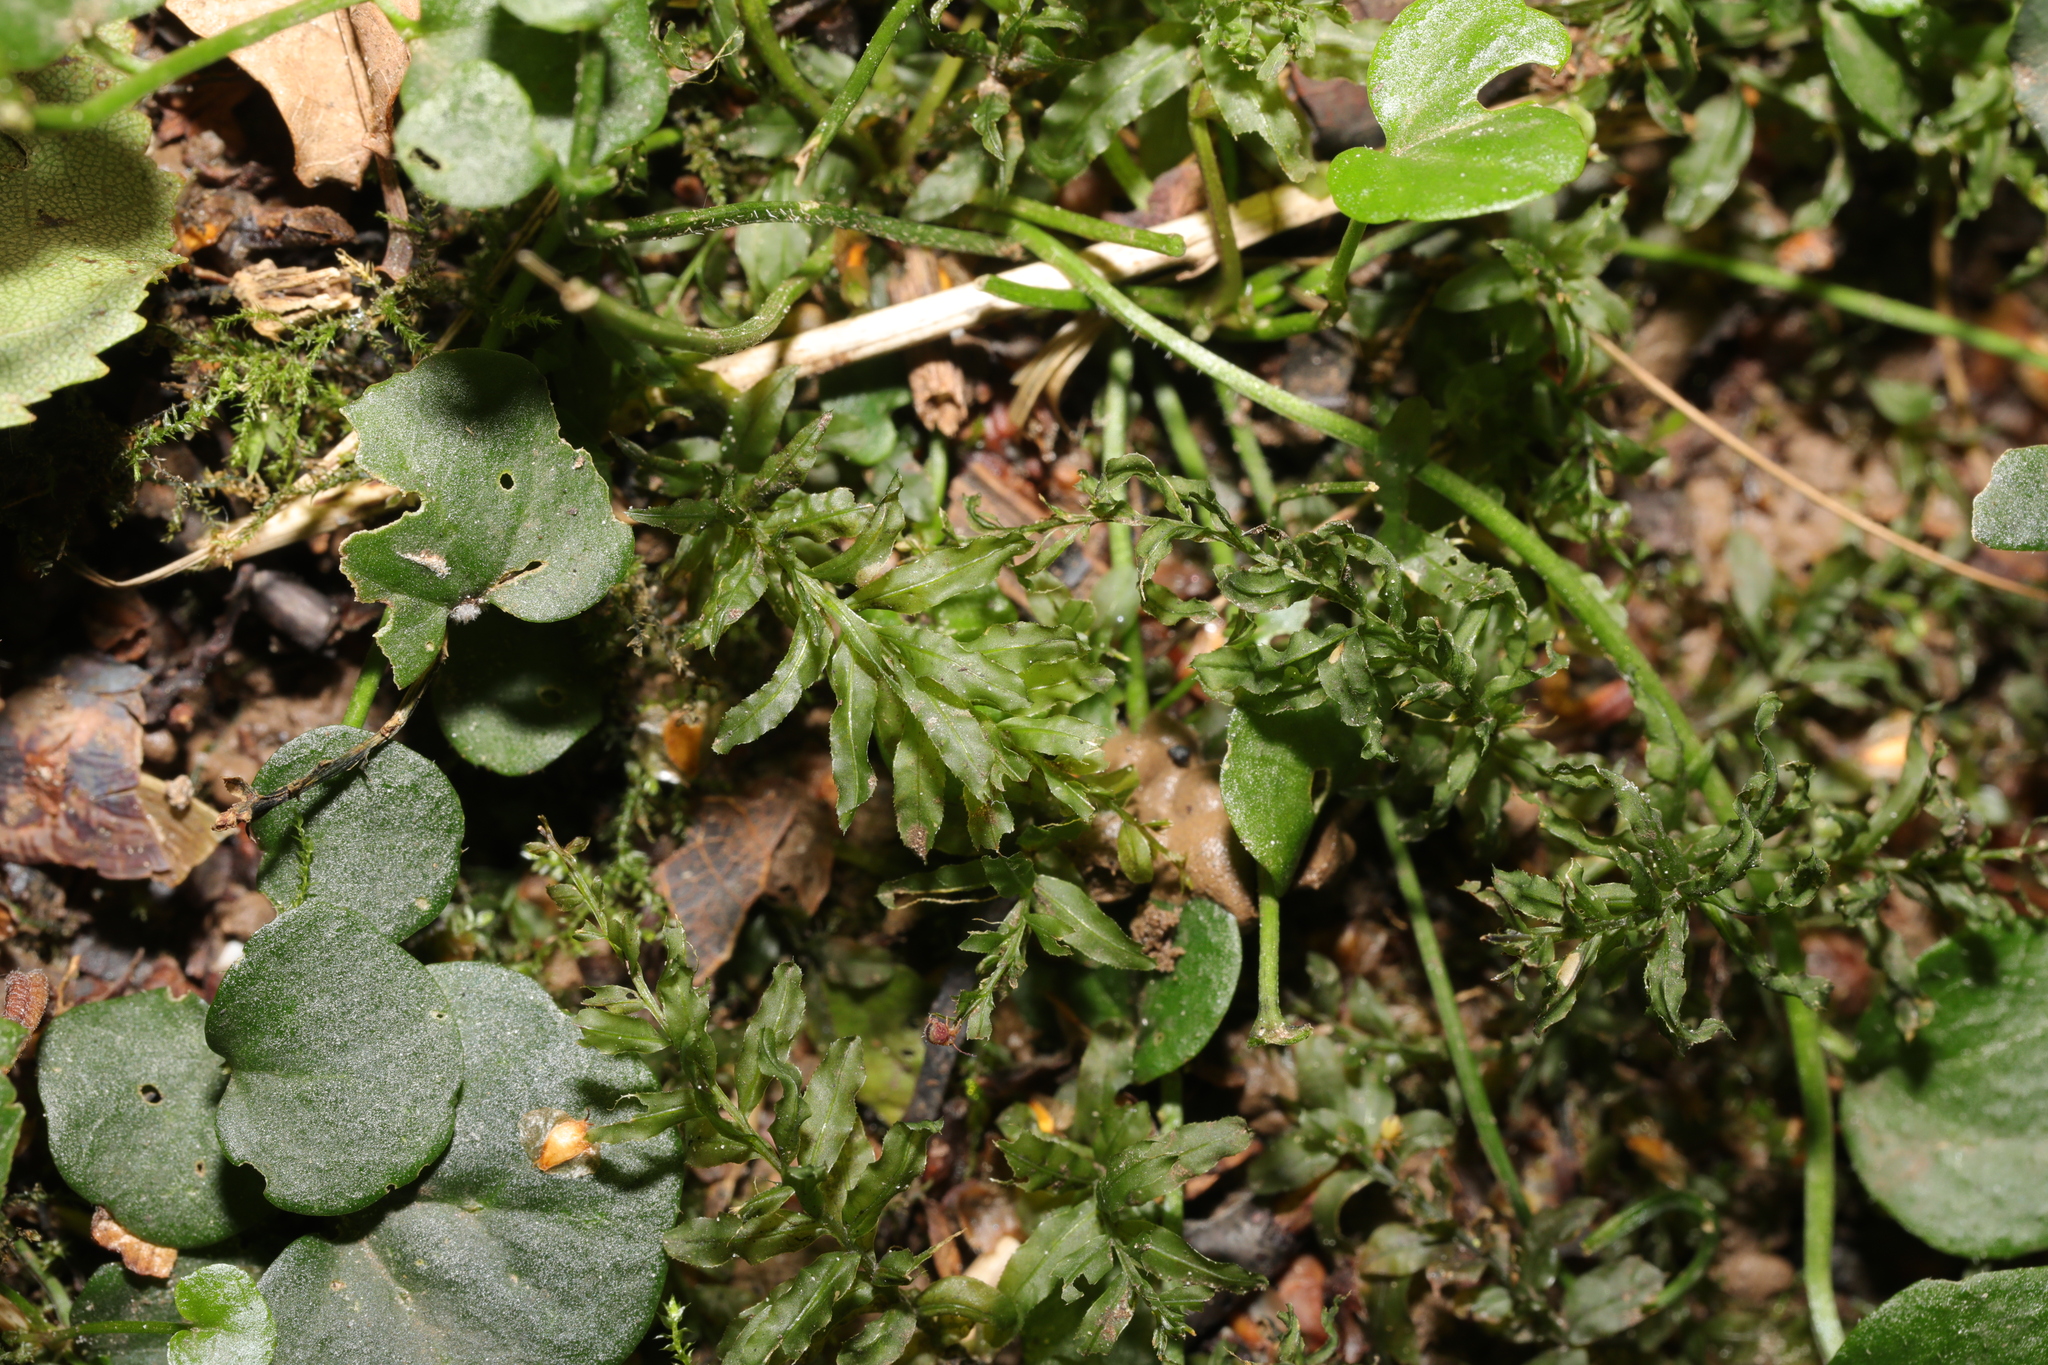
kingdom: Plantae
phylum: Bryophyta
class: Bryopsida
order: Bryales
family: Mniaceae
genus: Plagiomnium
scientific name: Plagiomnium undulatum
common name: Hart's-tongue thyme-moss
